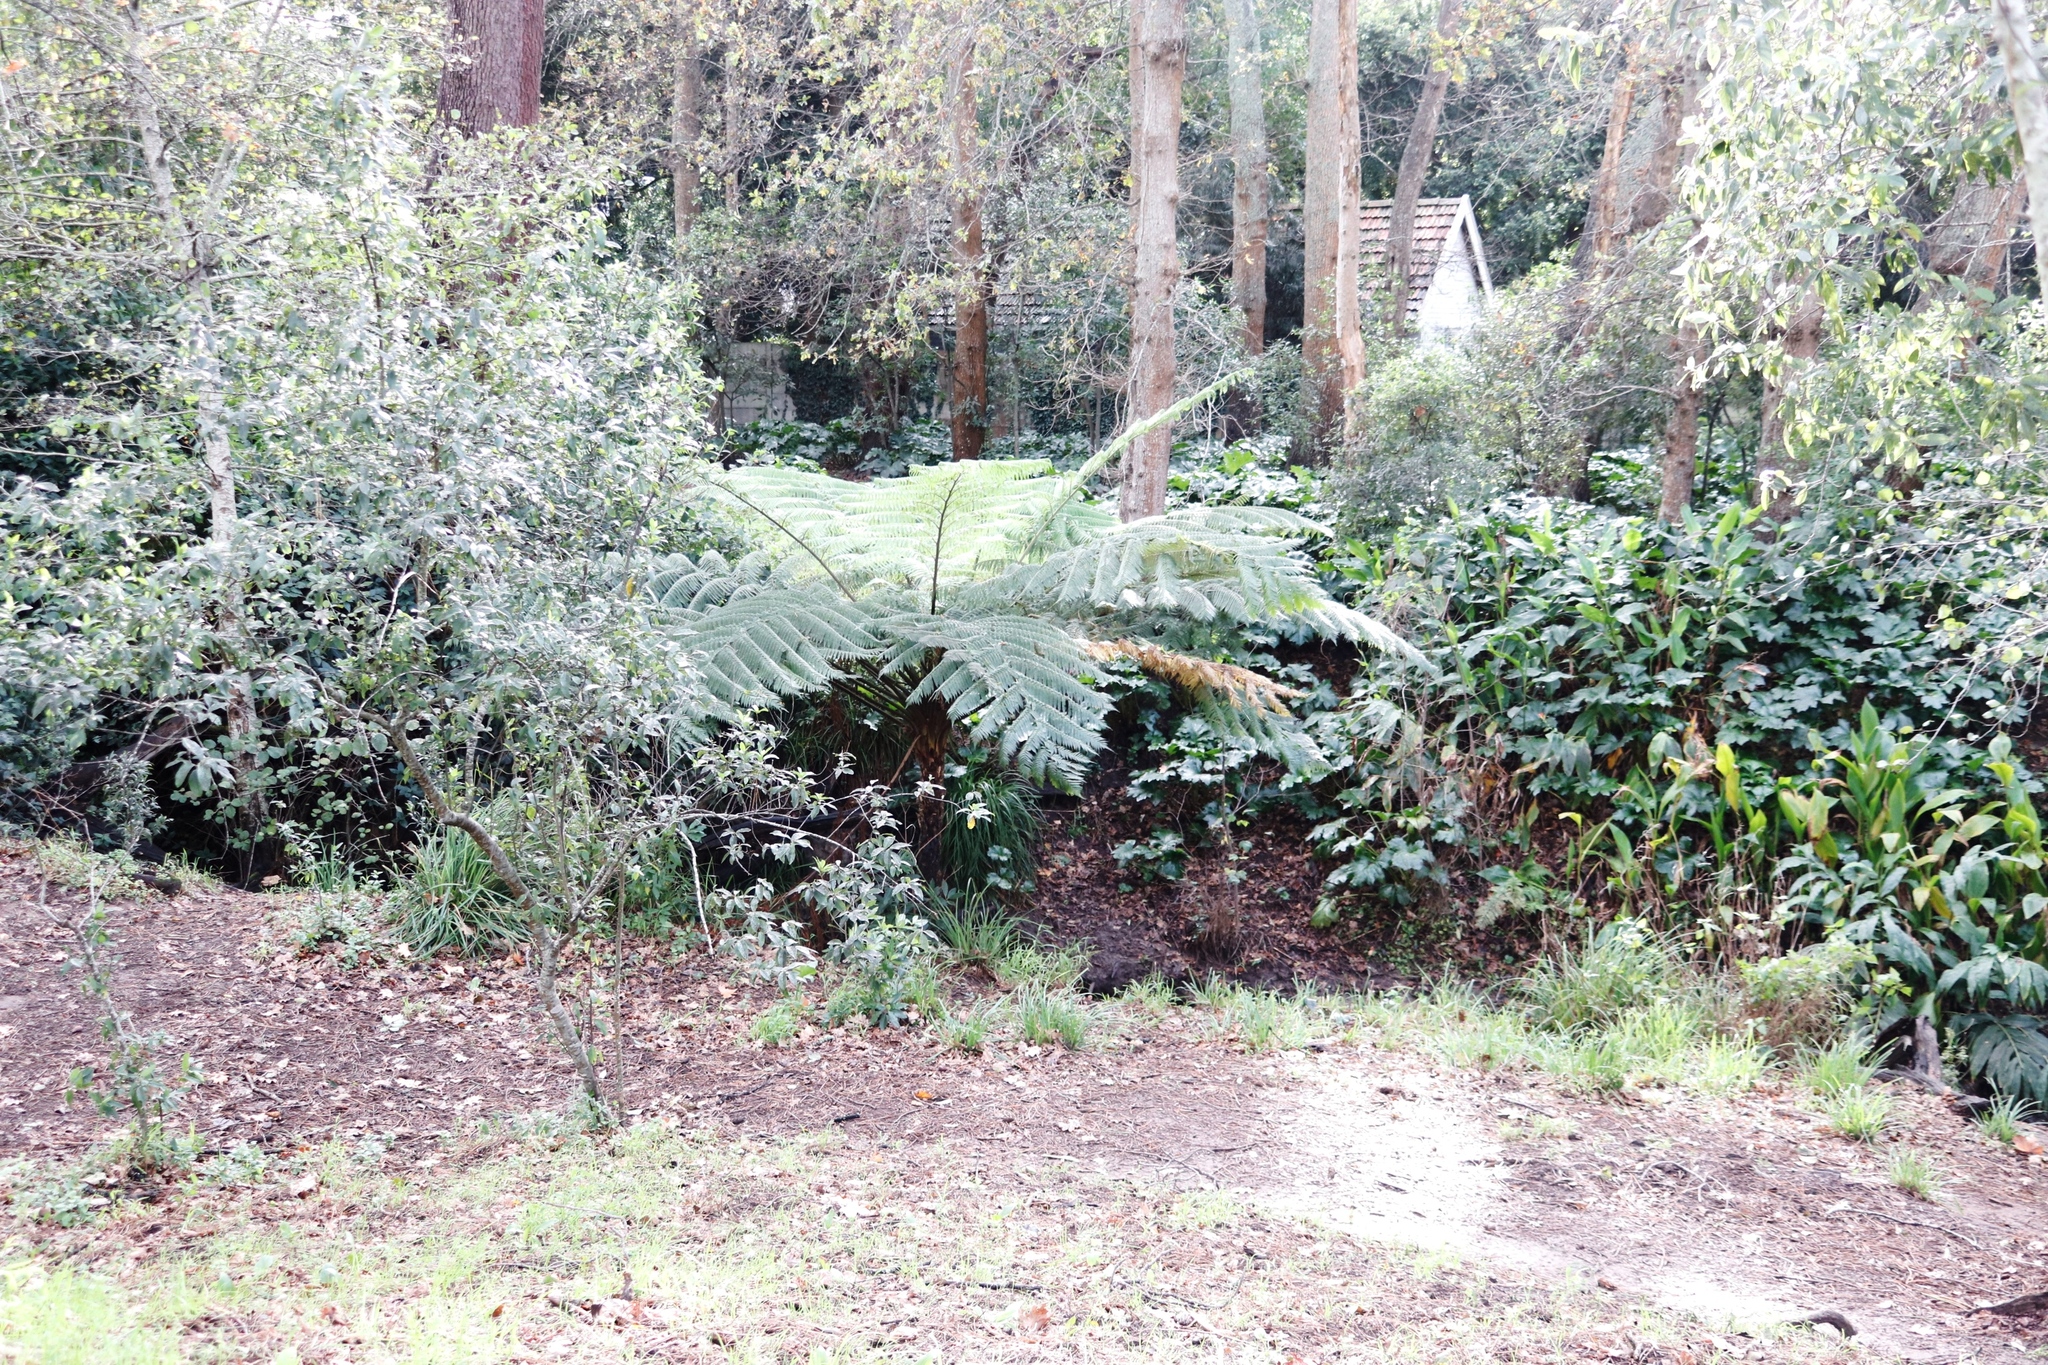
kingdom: Plantae
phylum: Tracheophyta
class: Polypodiopsida
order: Cyatheales
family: Cyatheaceae
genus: Sphaeropteris
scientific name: Sphaeropteris cooperi
